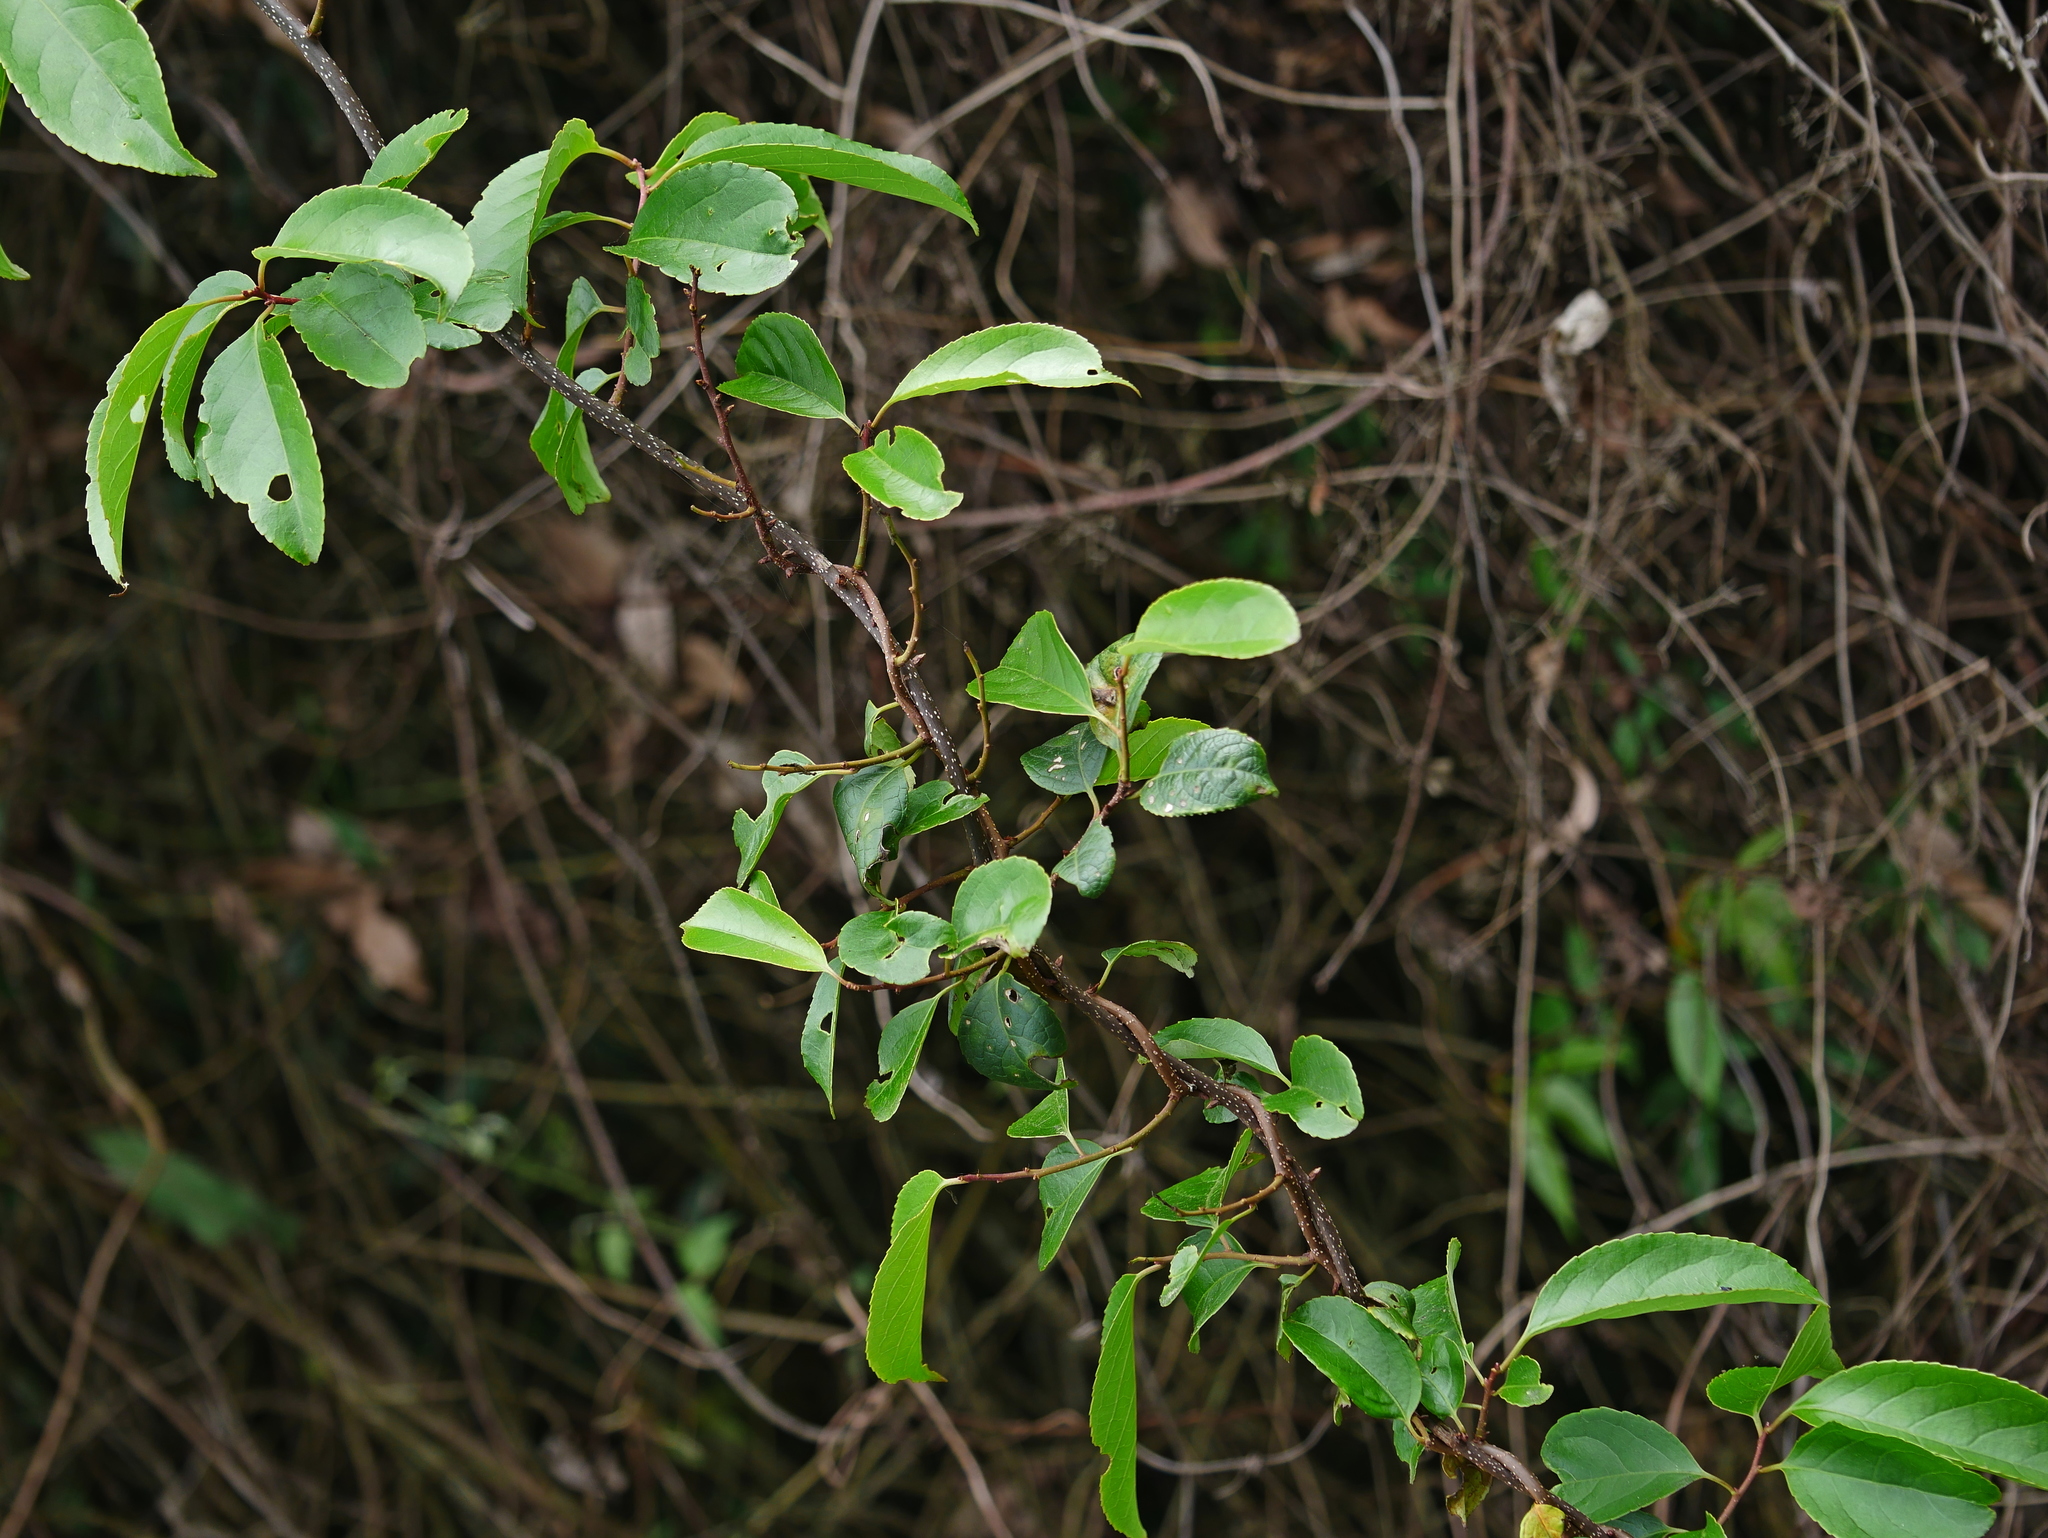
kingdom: Plantae
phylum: Tracheophyta
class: Magnoliopsida
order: Celastrales
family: Celastraceae
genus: Celastrus
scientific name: Celastrus punctatus
